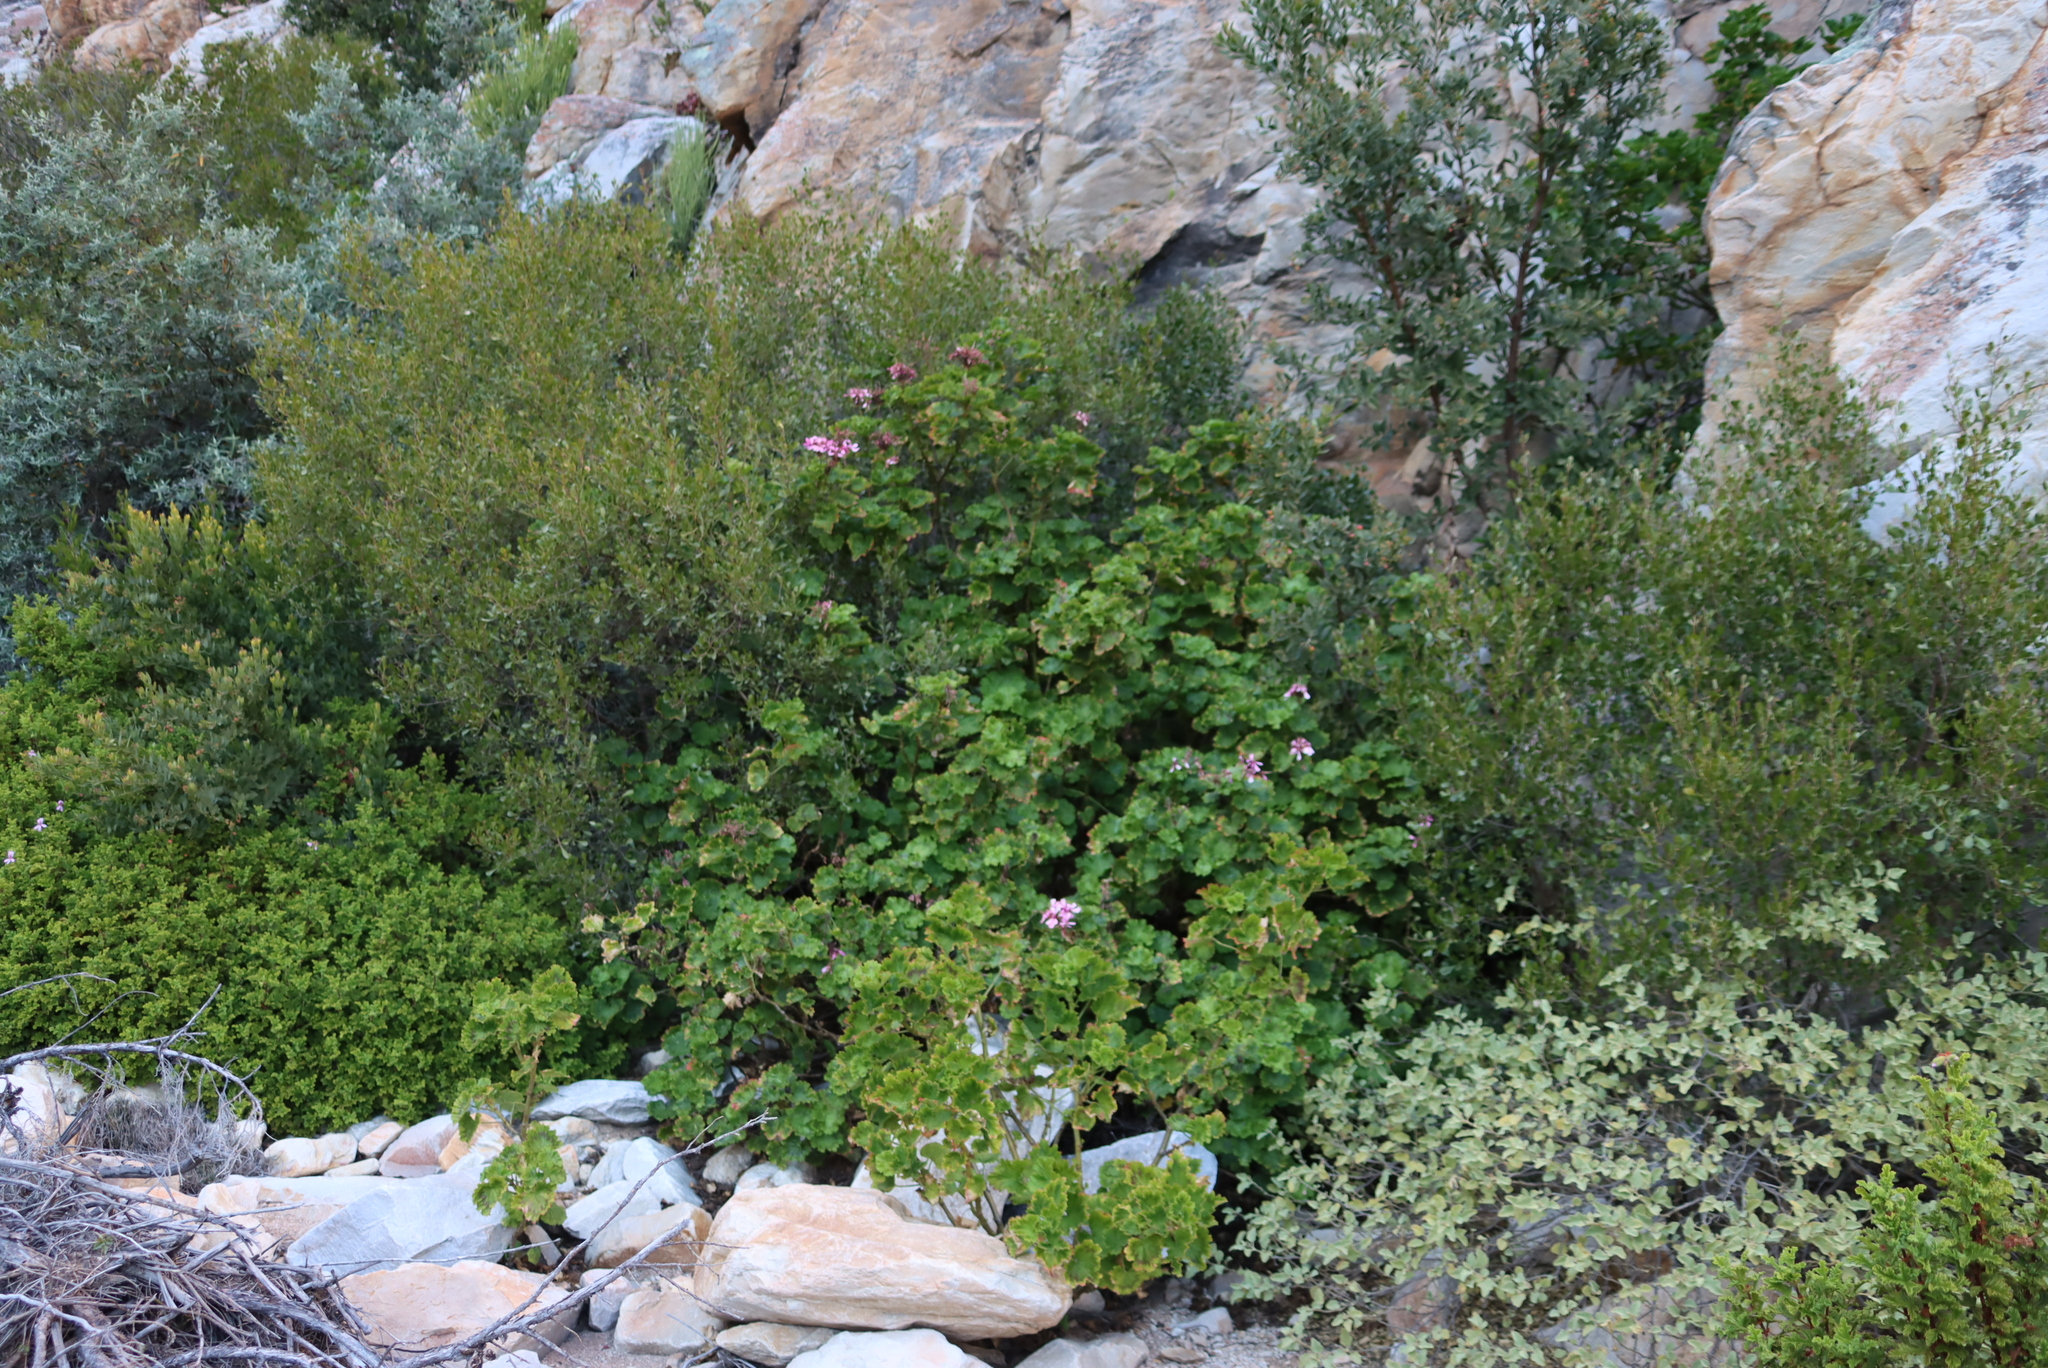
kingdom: Plantae
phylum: Tracheophyta
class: Magnoliopsida
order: Geraniales
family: Geraniaceae
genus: Pelargonium
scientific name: Pelargonium zonale
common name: Horseshoe geranium
